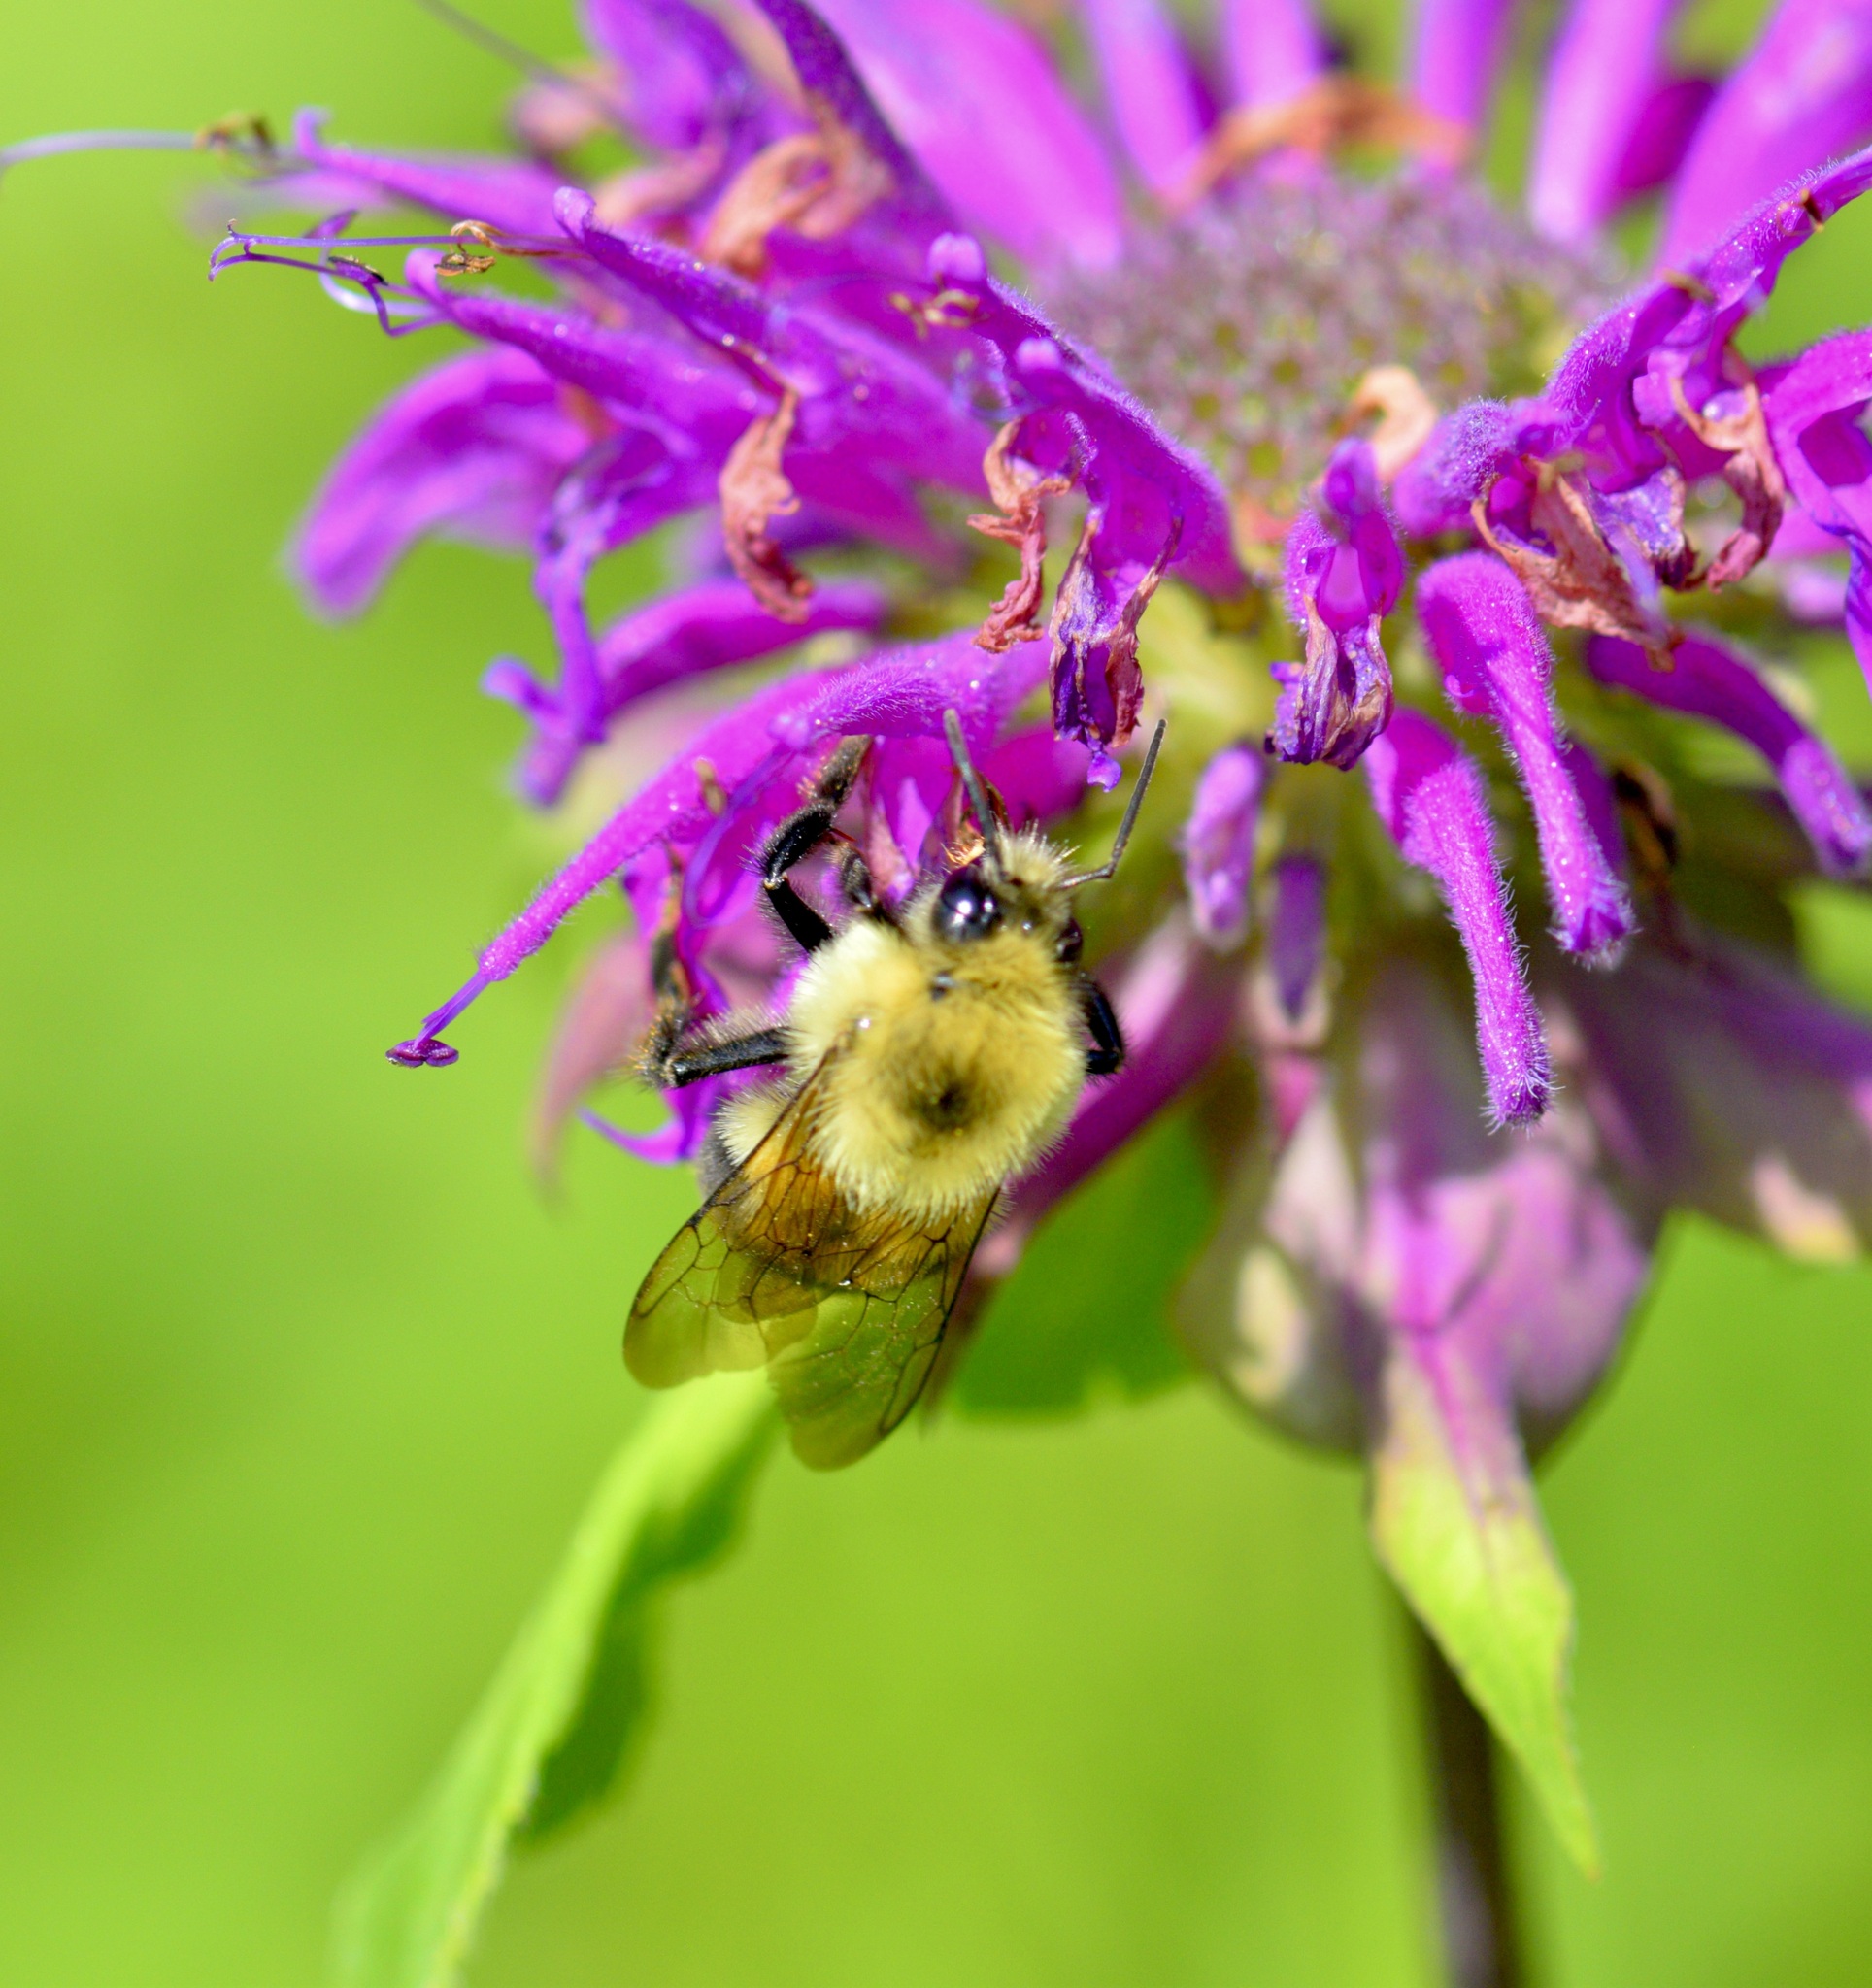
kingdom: Animalia
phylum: Arthropoda
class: Insecta
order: Hymenoptera
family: Apidae
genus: Bombus
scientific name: Bombus bimaculatus
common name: Two-spotted bumble bee
